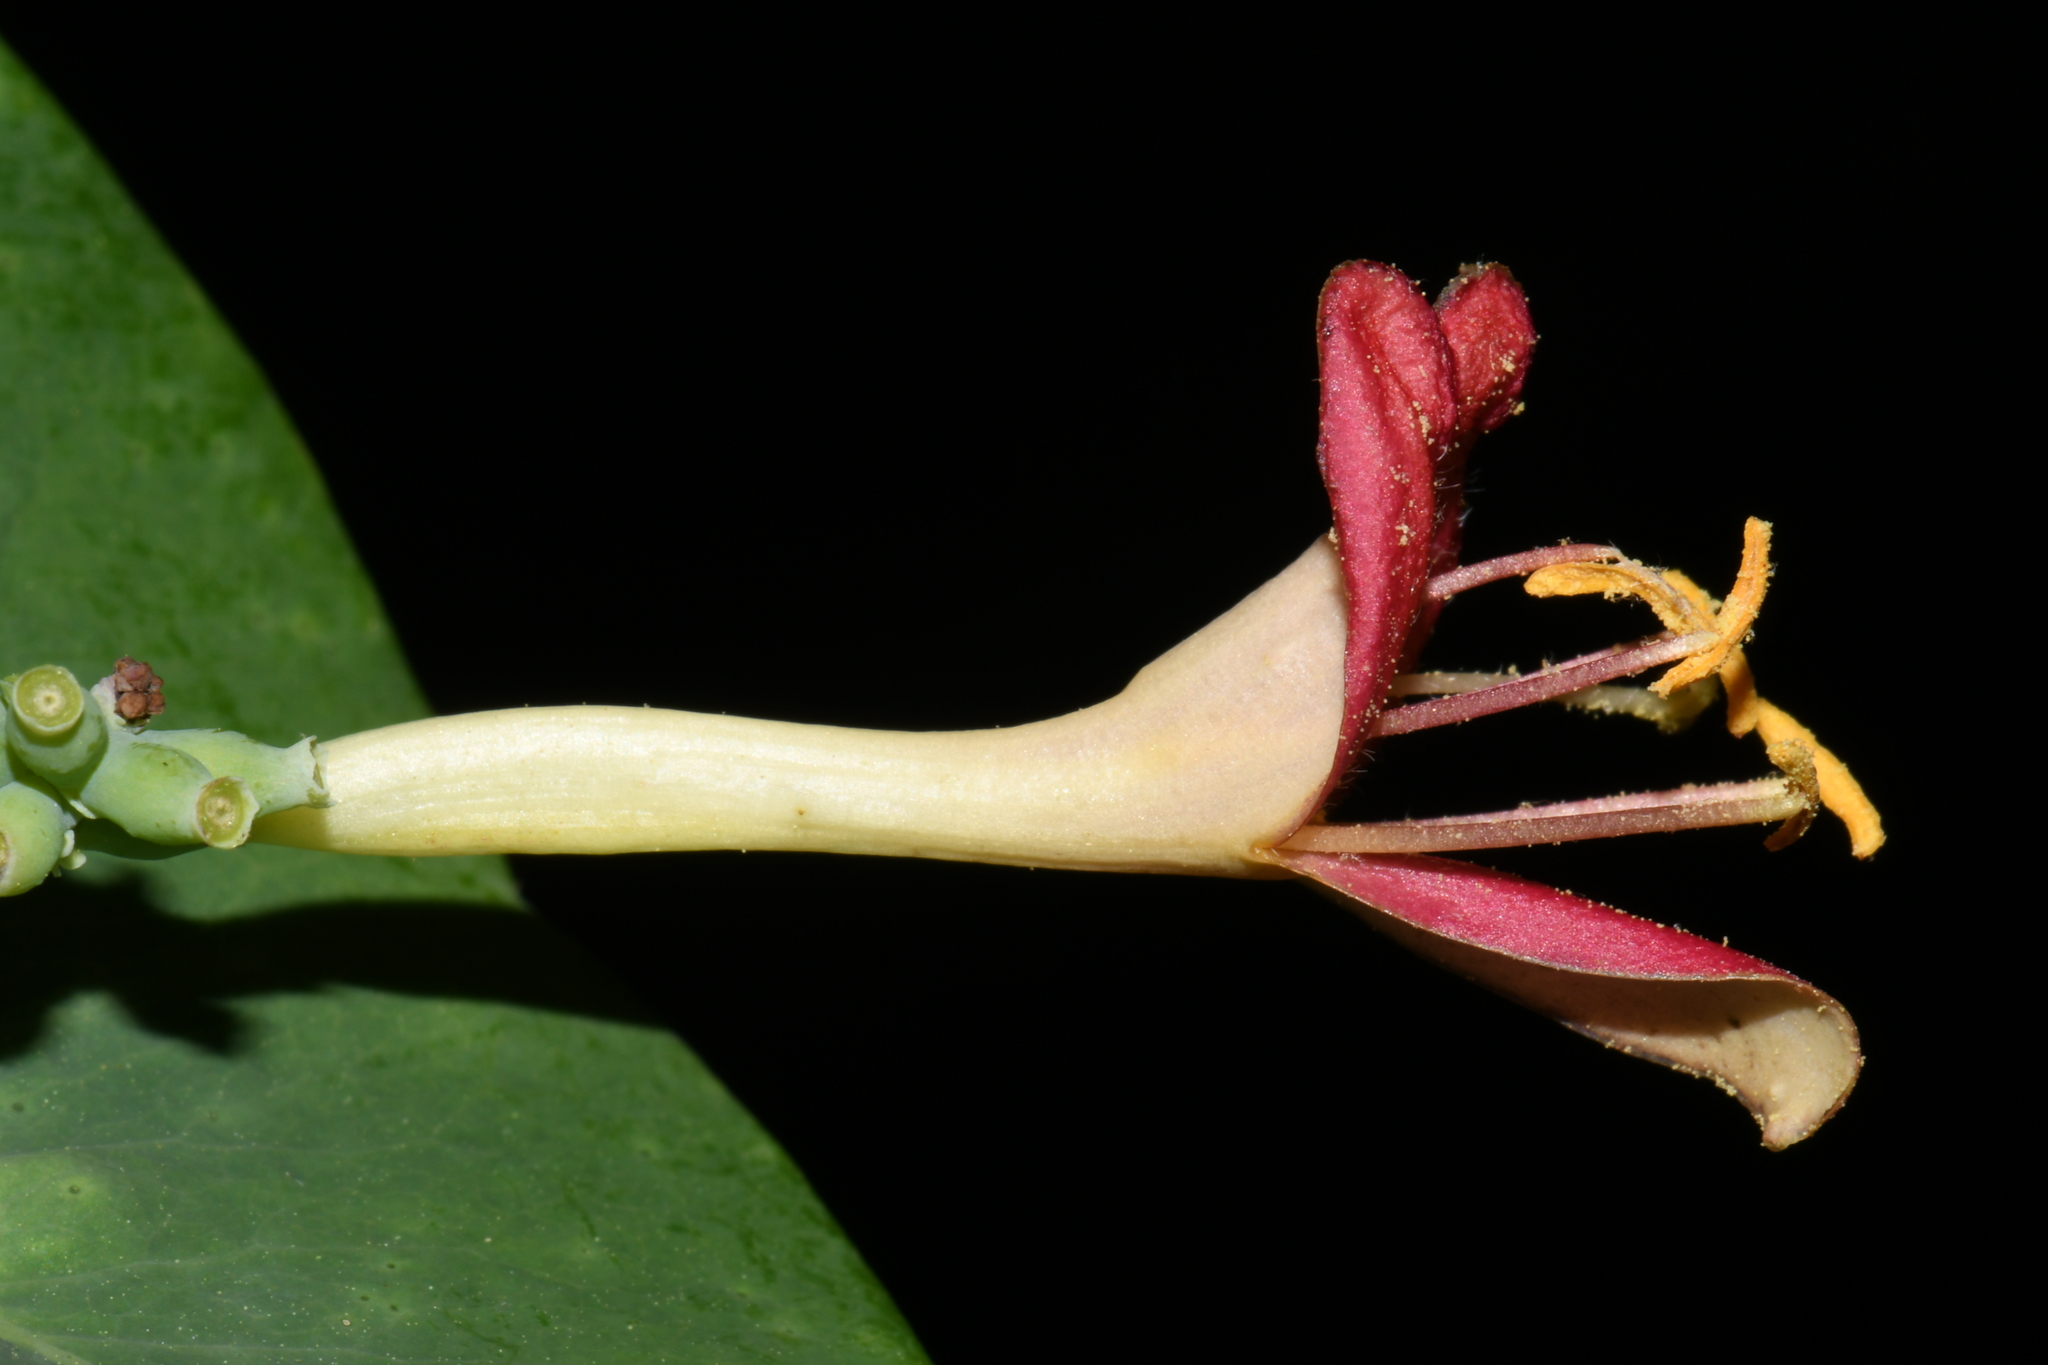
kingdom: Plantae
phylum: Tracheophyta
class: Magnoliopsida
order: Dipsacales
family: Caprifoliaceae
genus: Lonicera
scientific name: Lonicera dioica
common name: Limber honeysuckle
